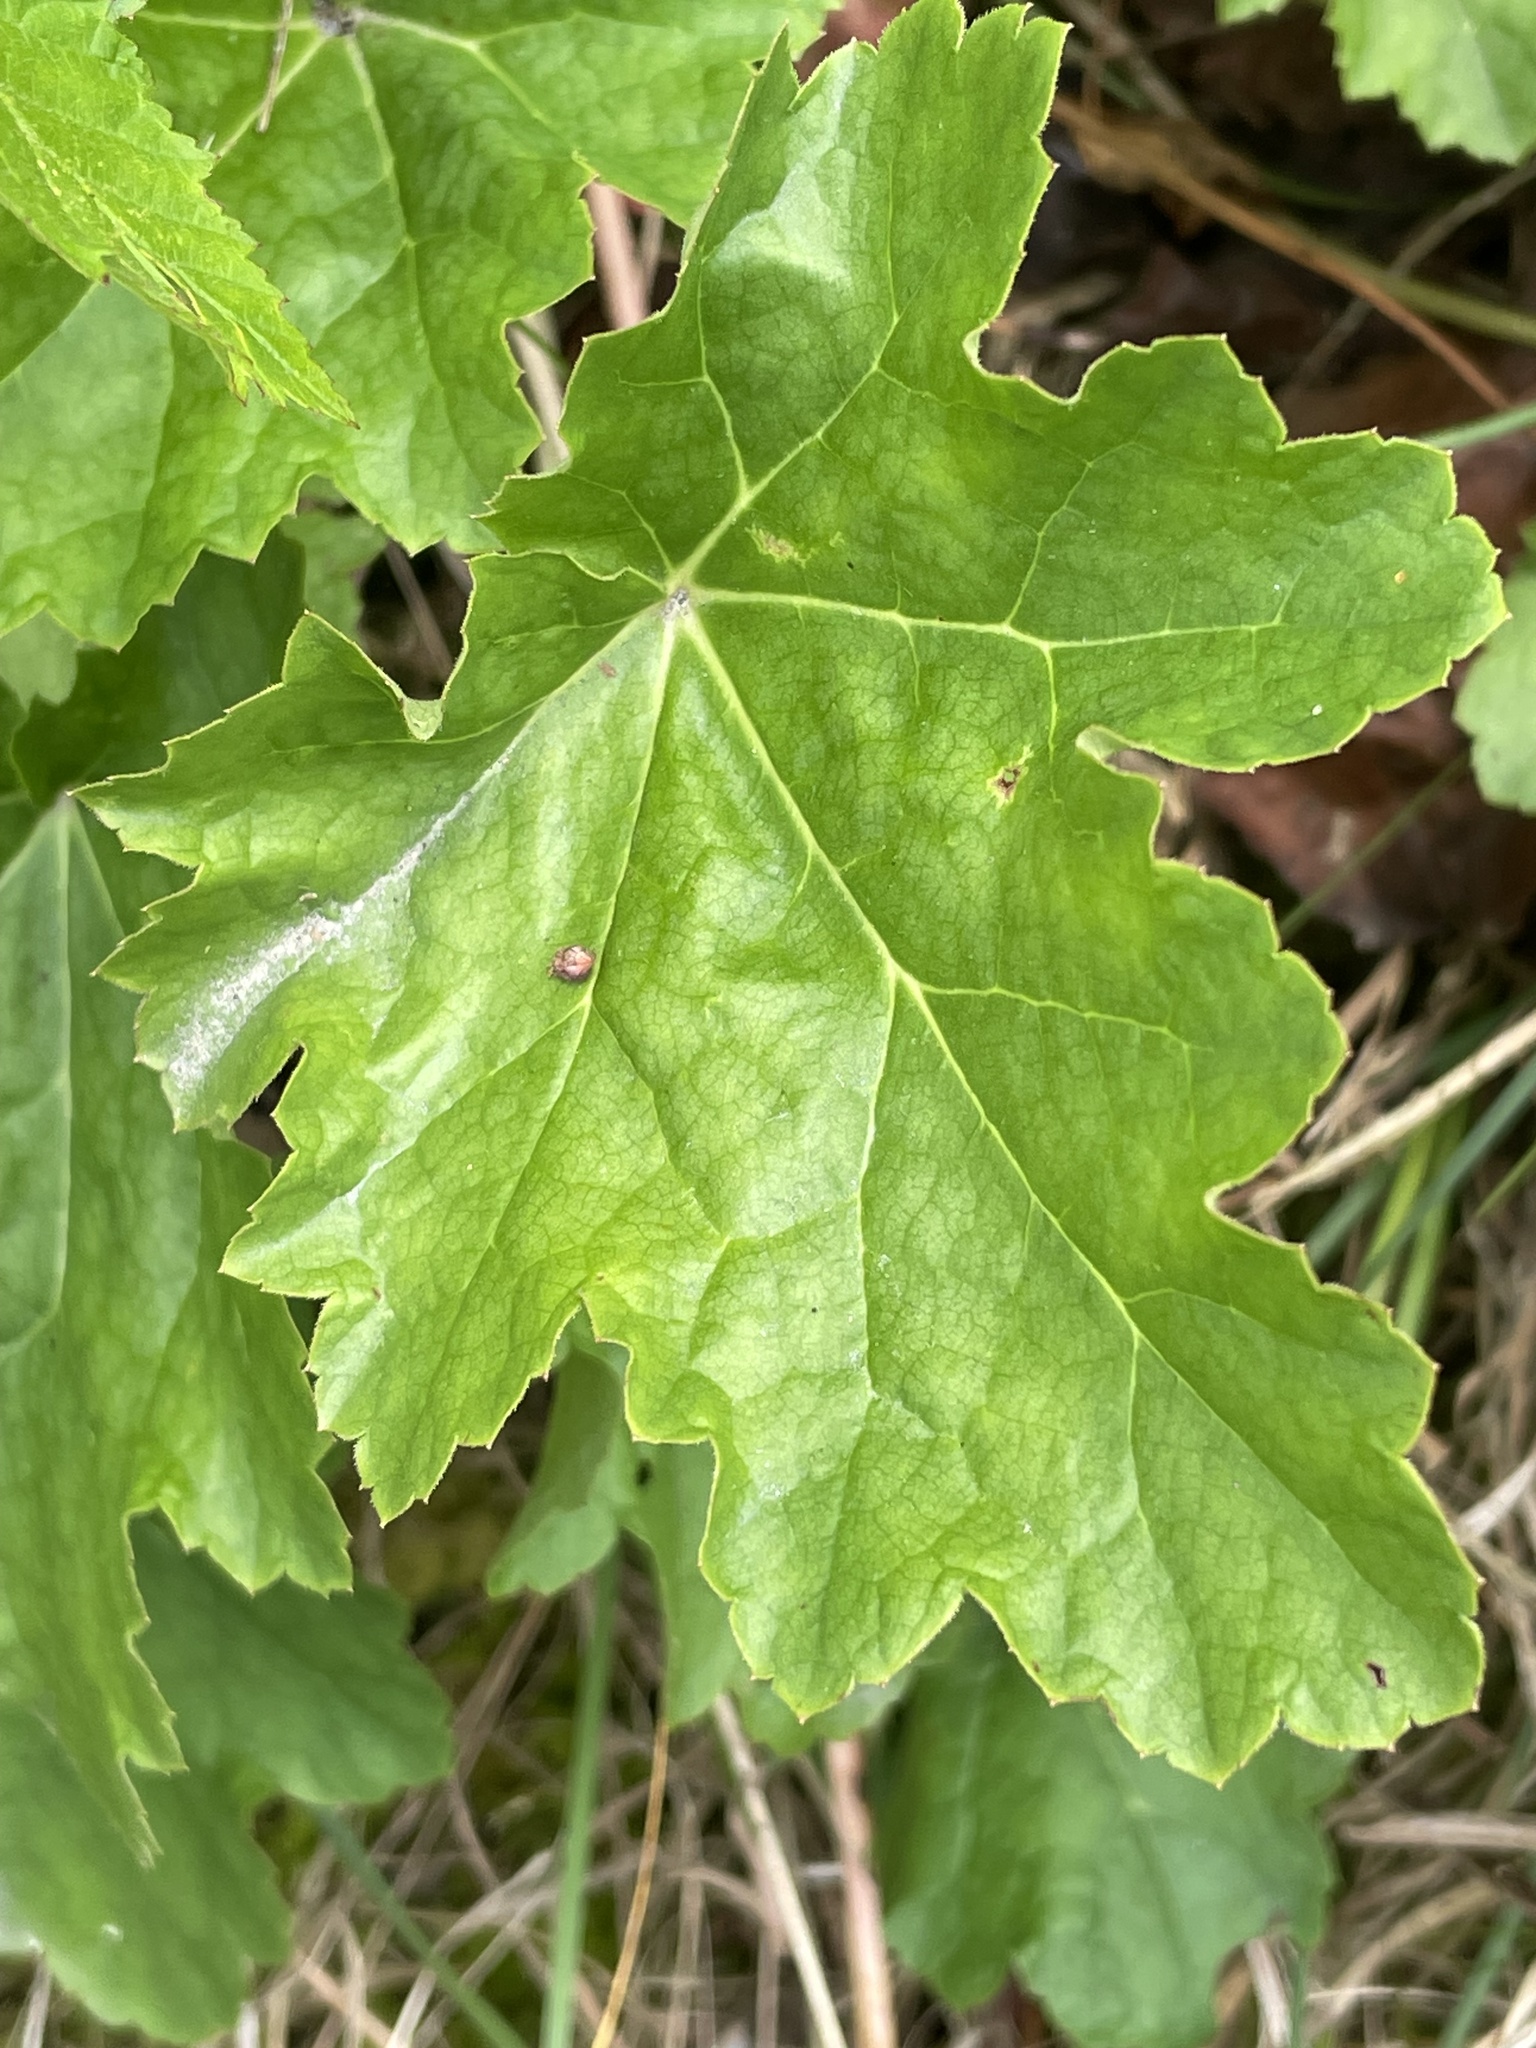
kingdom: Plantae
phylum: Tracheophyta
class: Magnoliopsida
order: Saxifragales
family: Saxifragaceae
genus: Heuchera
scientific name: Heuchera caroliniana
